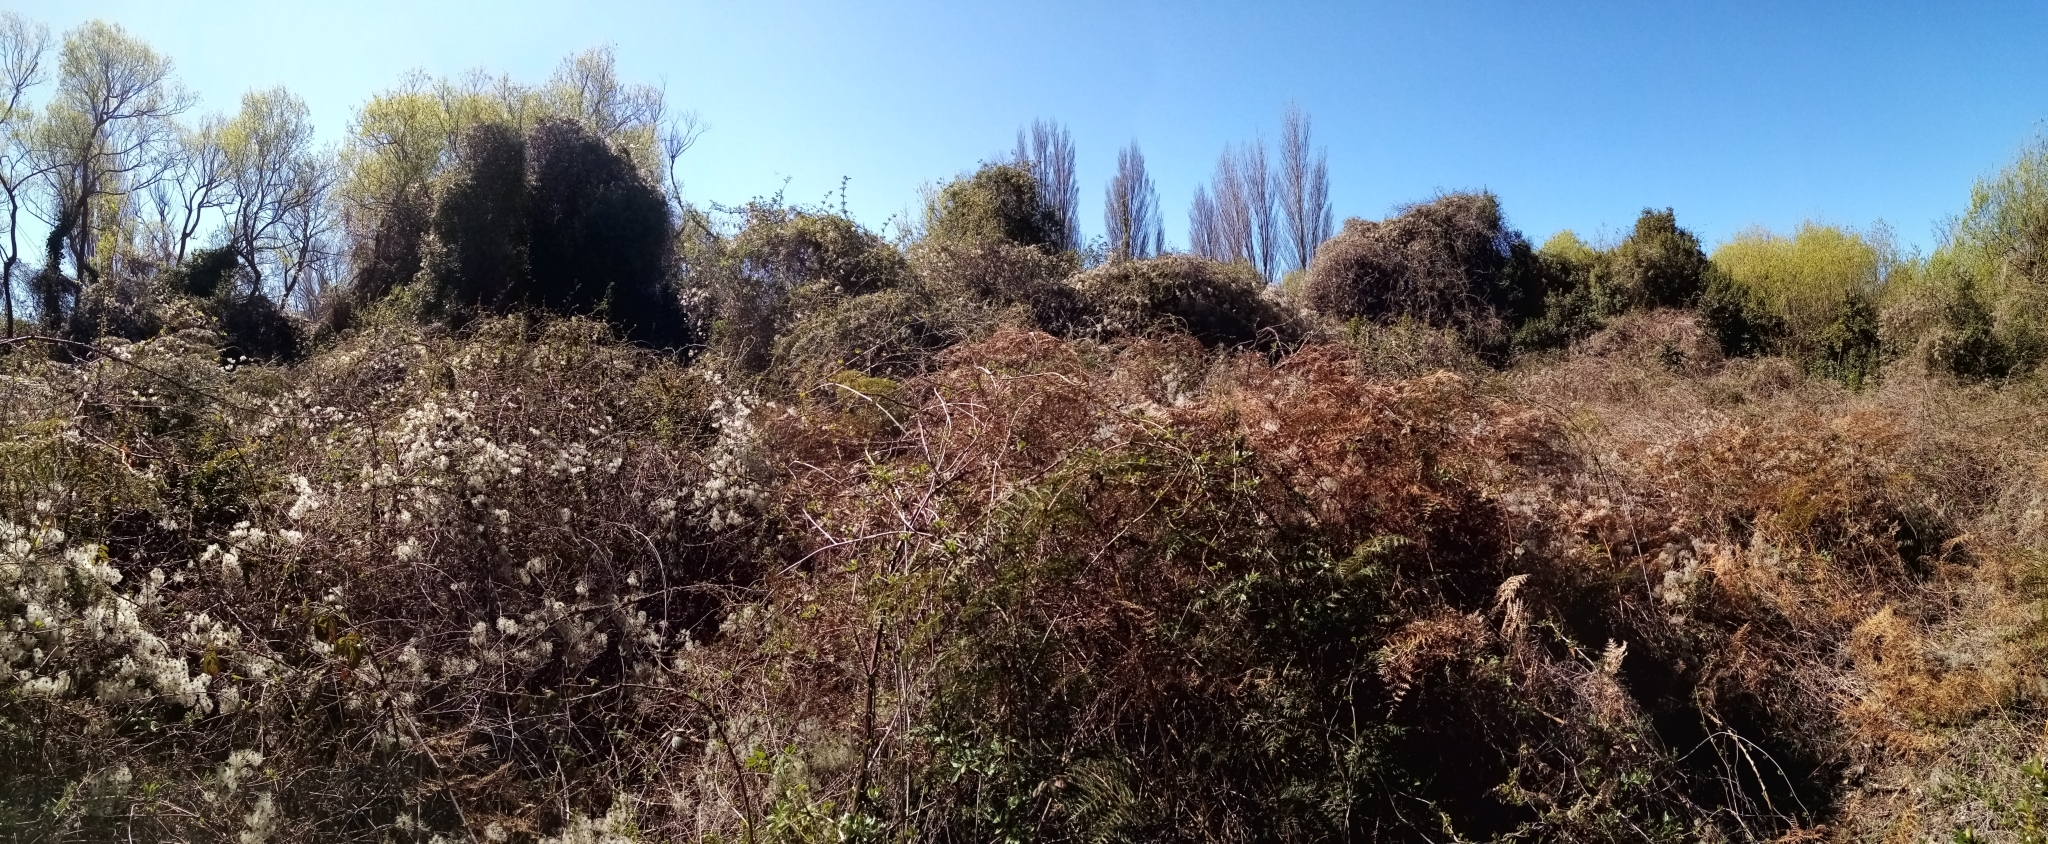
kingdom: Plantae
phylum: Tracheophyta
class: Magnoliopsida
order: Ranunculales
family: Ranunculaceae
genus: Clematis
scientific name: Clematis vitalba
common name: Evergreen clematis
